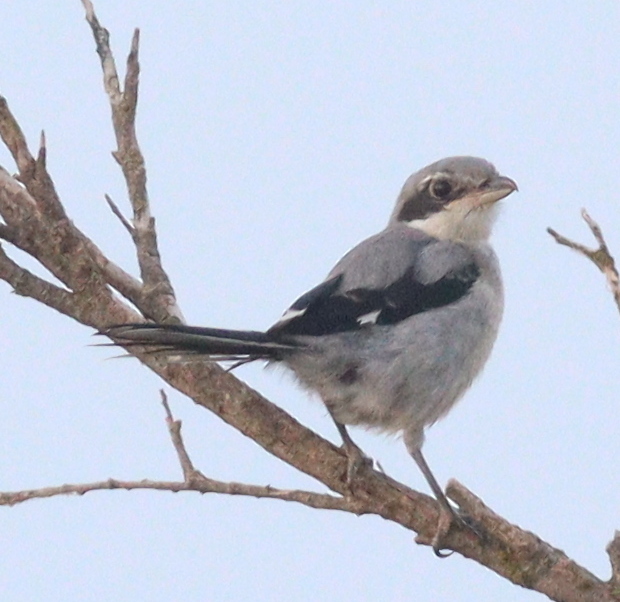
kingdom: Animalia
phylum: Chordata
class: Aves
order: Passeriformes
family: Laniidae
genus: Lanius
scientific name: Lanius meridionalis
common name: Iberian grey shrike
